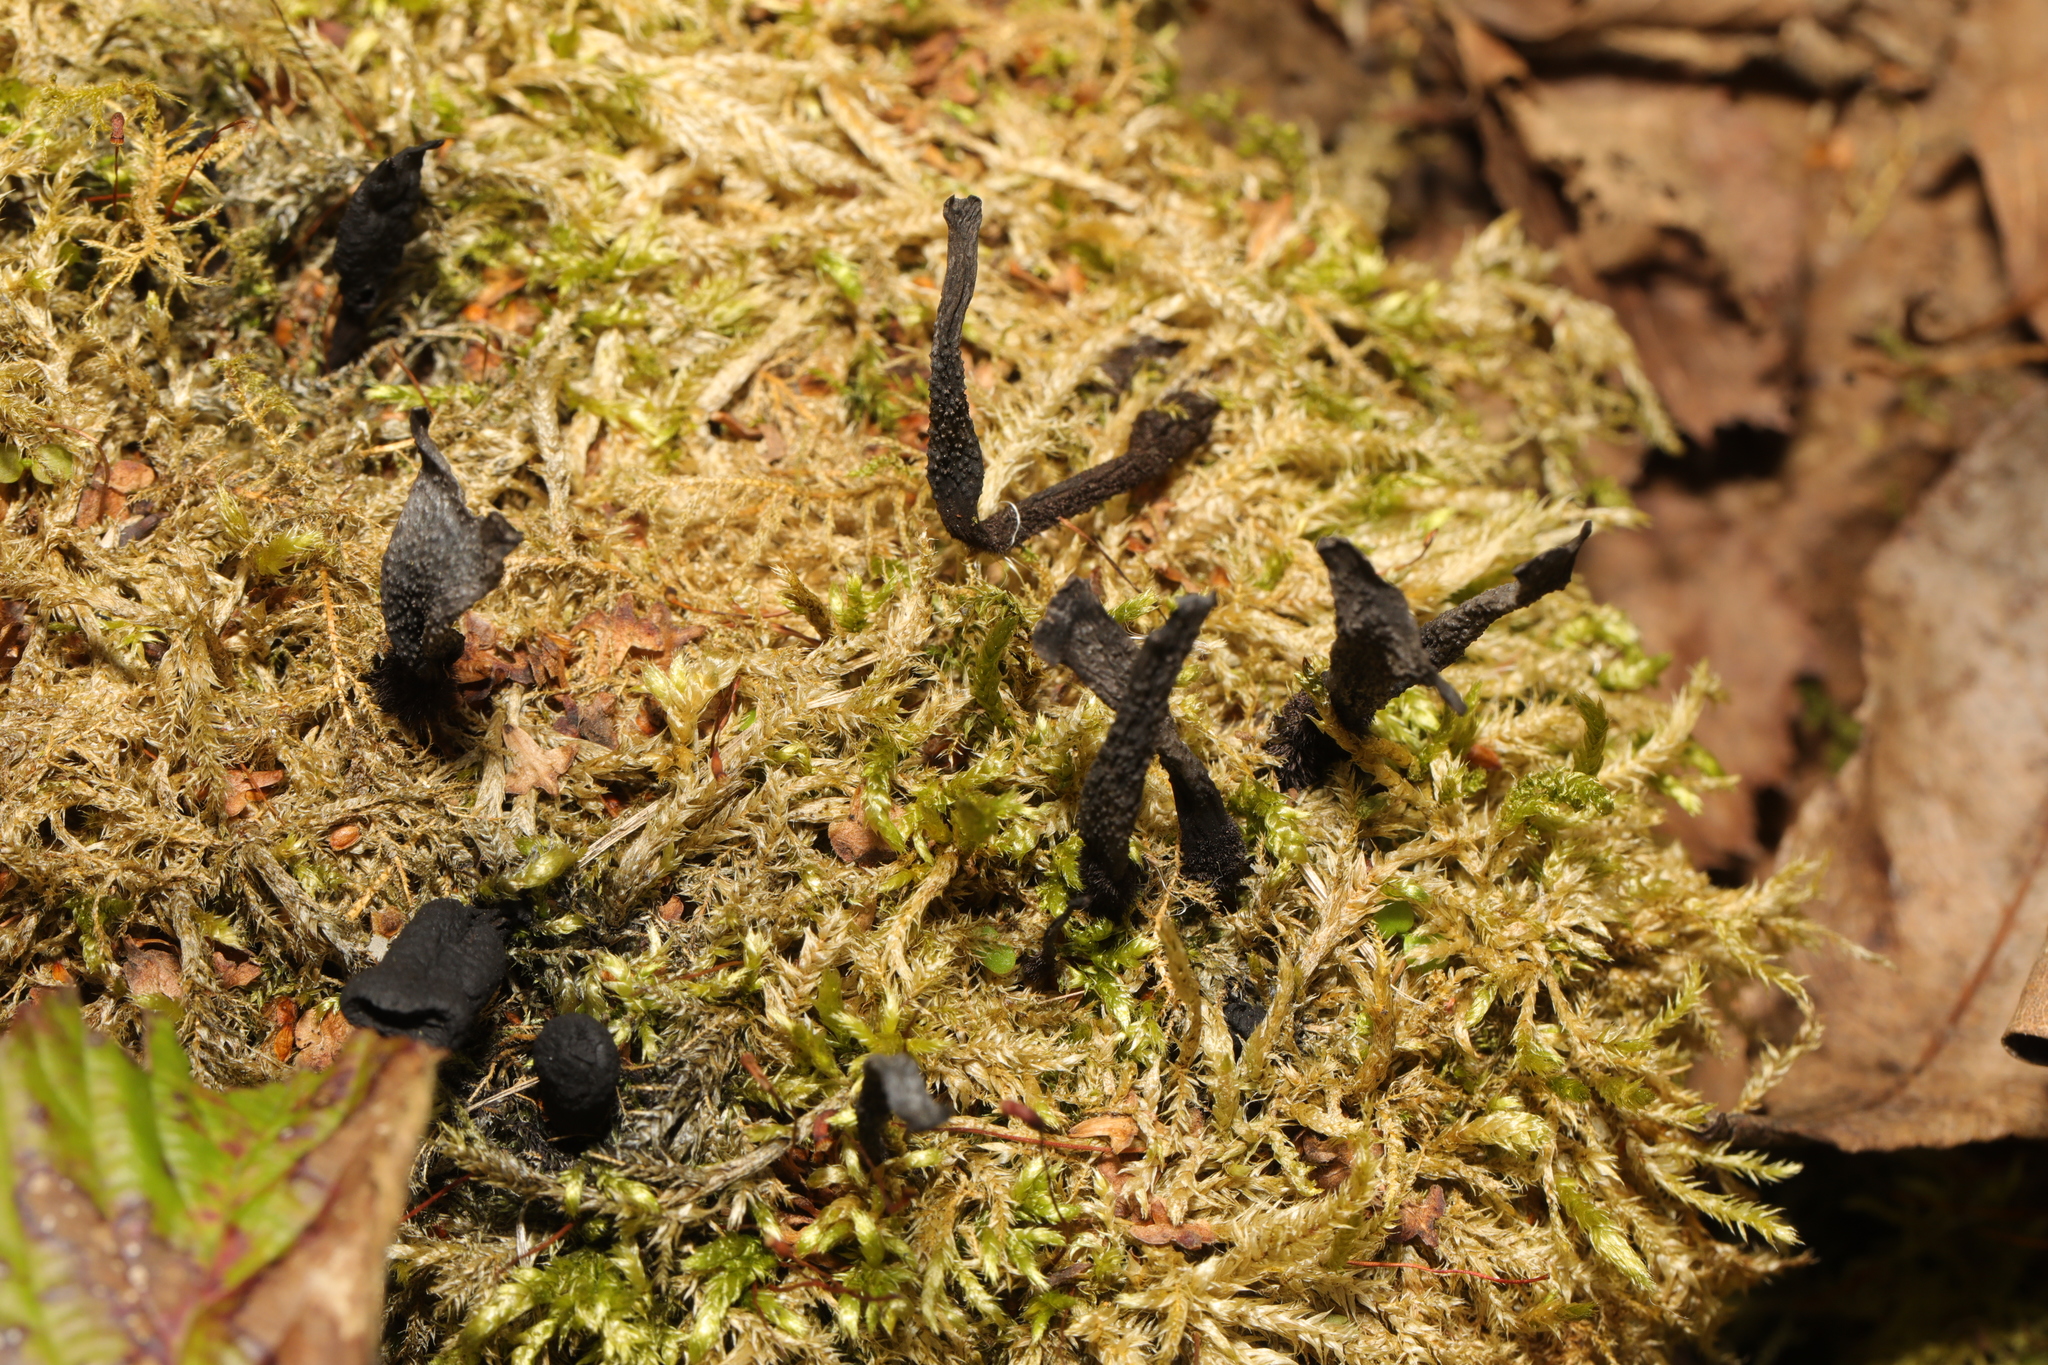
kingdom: Fungi
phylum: Ascomycota
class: Sordariomycetes
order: Xylariales
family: Xylariaceae
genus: Xylaria
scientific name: Xylaria hypoxylon
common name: Candle-snuff fungus
